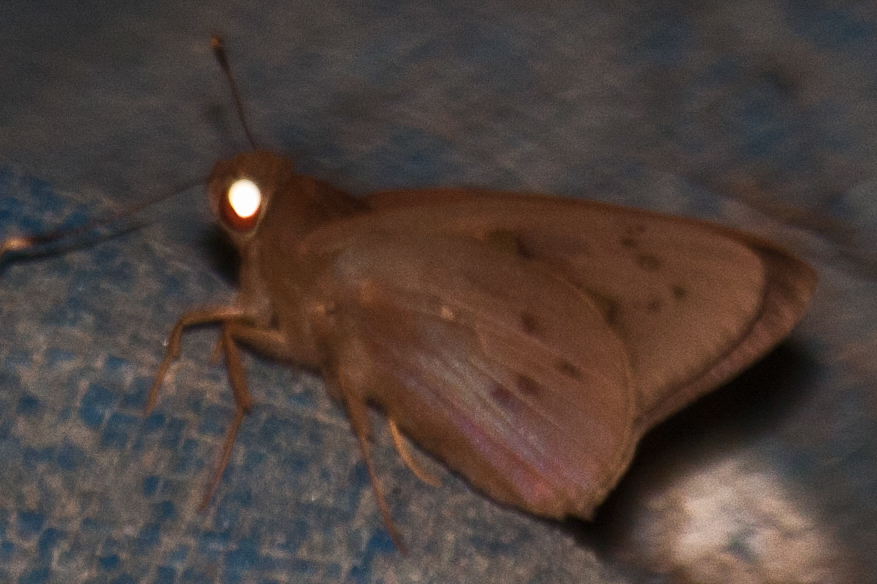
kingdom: Animalia
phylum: Arthropoda
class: Insecta
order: Lepidoptera
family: Hesperiidae
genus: Hidari
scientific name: Hidari irava
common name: Coconut skipper
